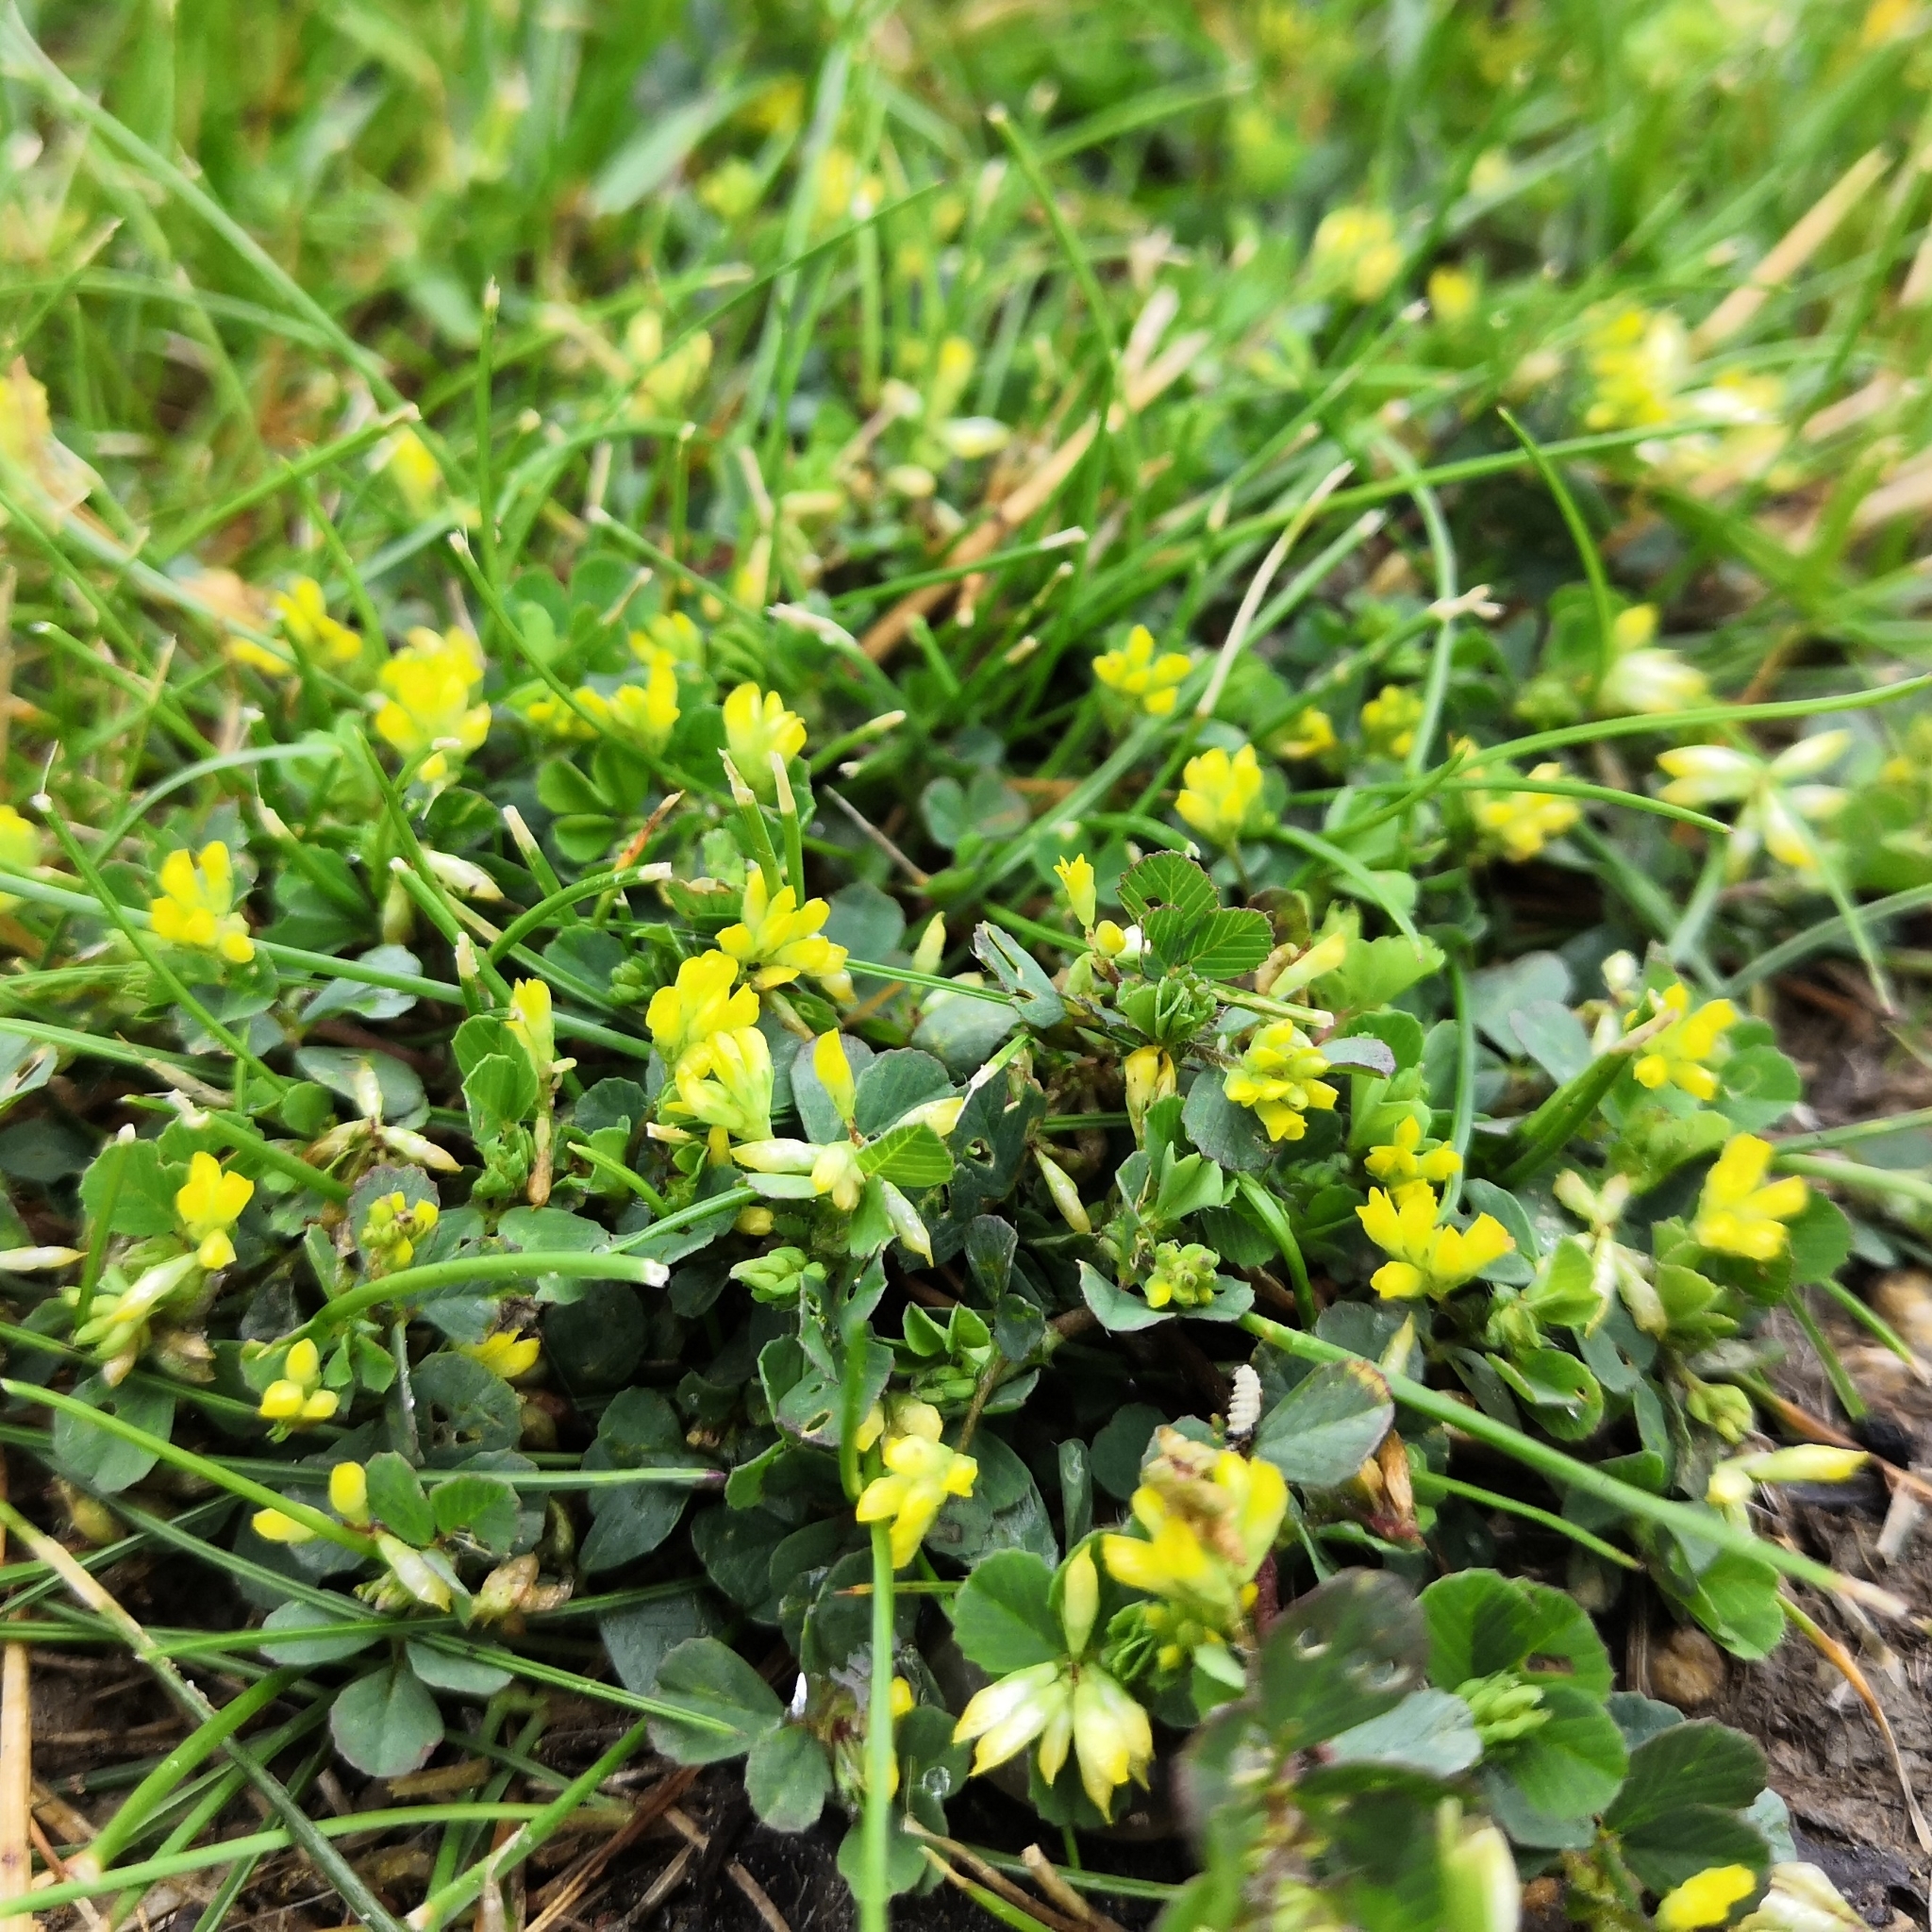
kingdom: Plantae
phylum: Tracheophyta
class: Magnoliopsida
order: Fabales
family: Fabaceae
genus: Trifolium
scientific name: Trifolium dubium
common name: Suckling clover
